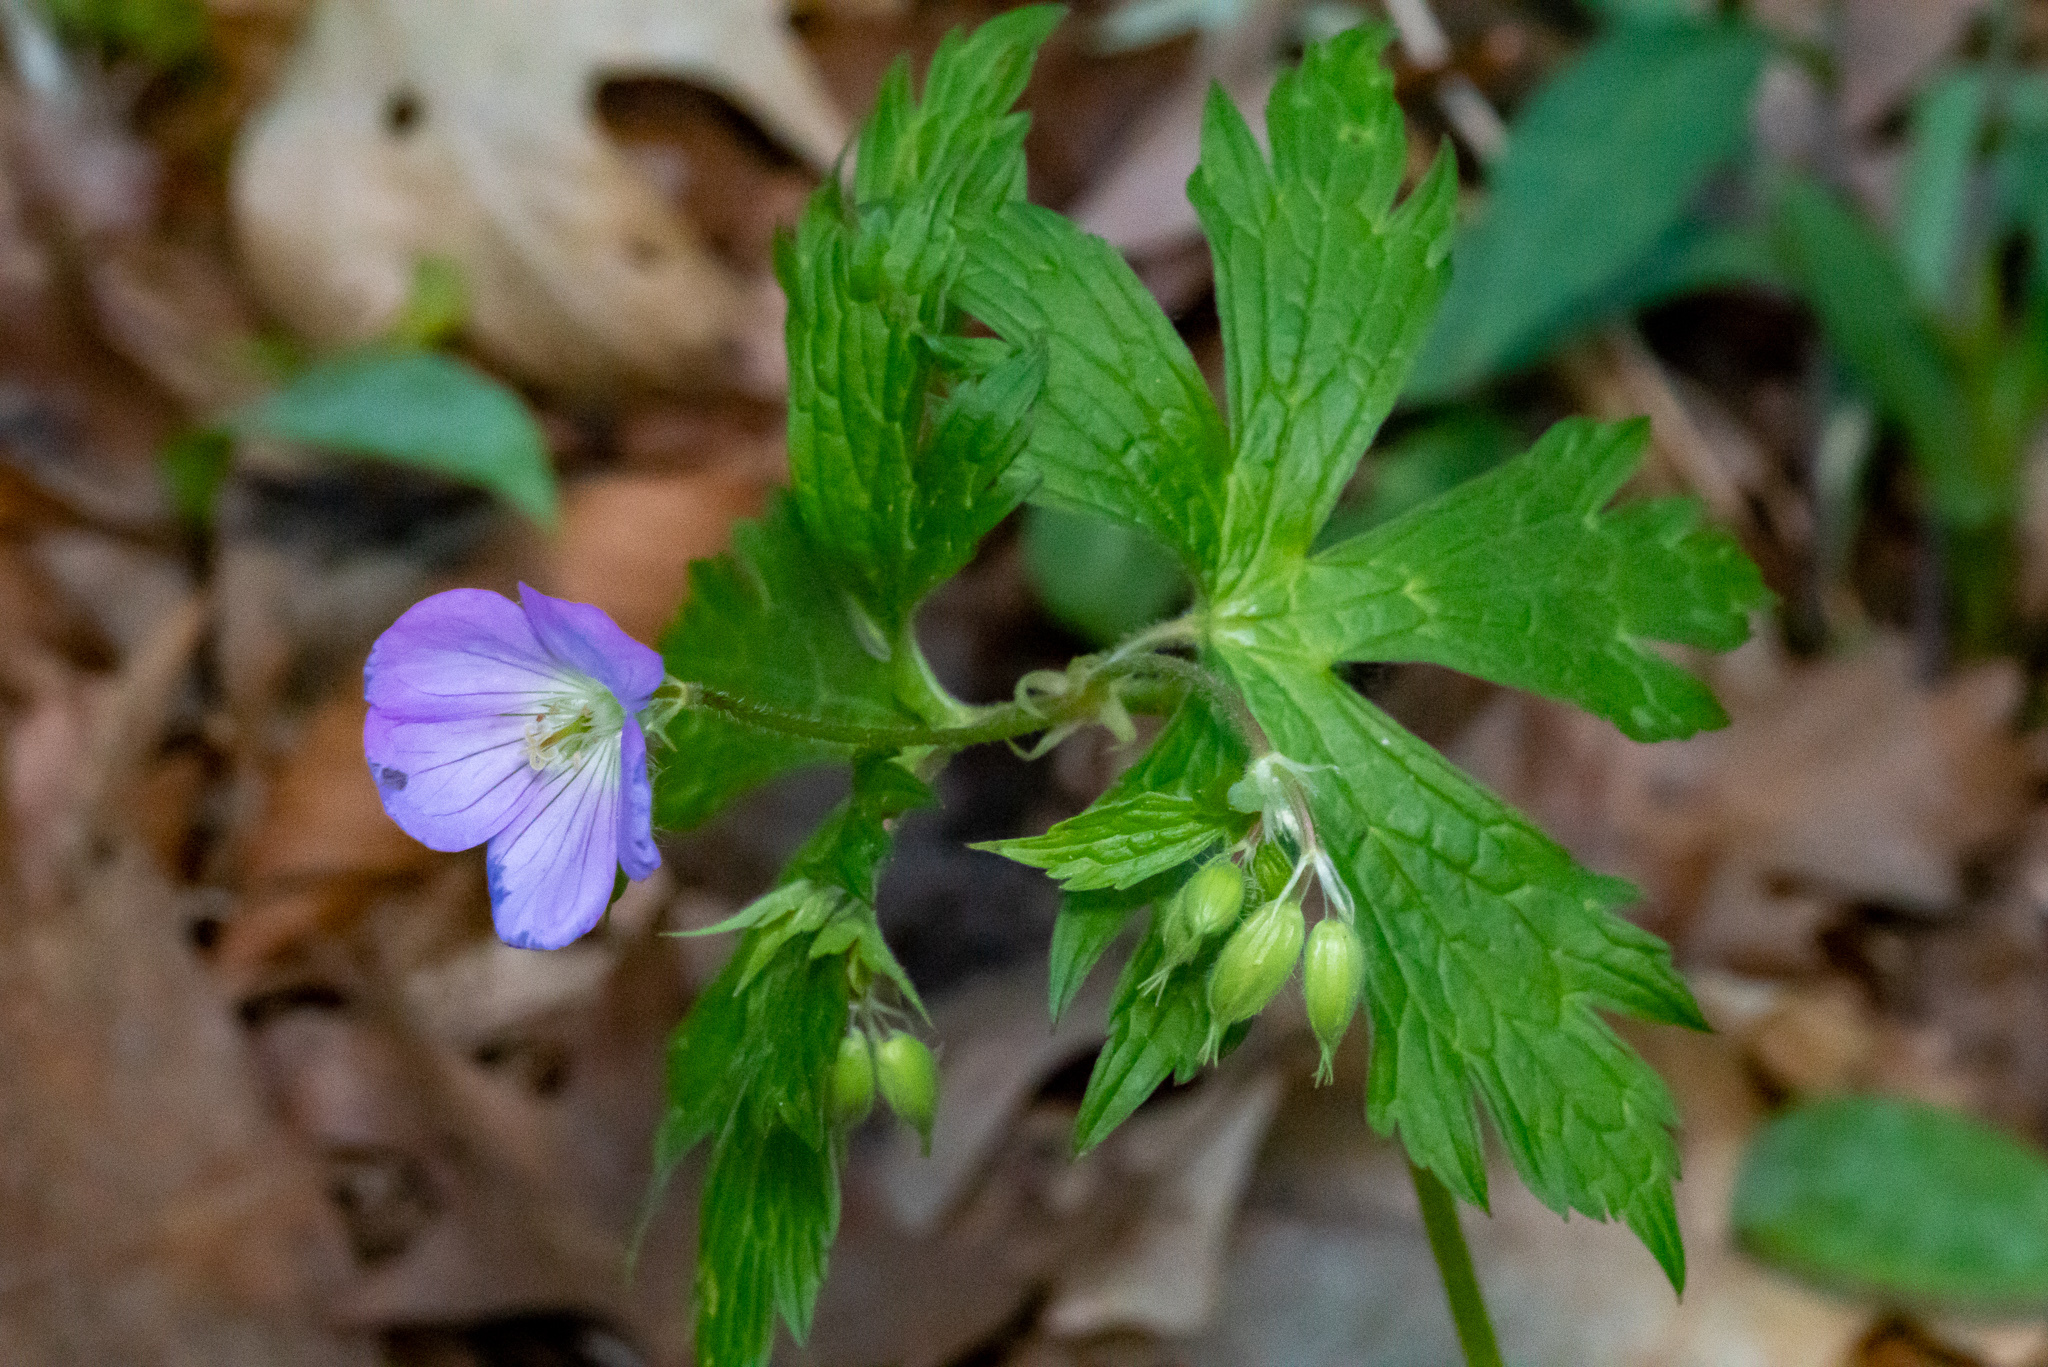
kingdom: Plantae
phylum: Tracheophyta
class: Magnoliopsida
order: Geraniales
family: Geraniaceae
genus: Geranium
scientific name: Geranium maculatum
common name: Spotted geranium
